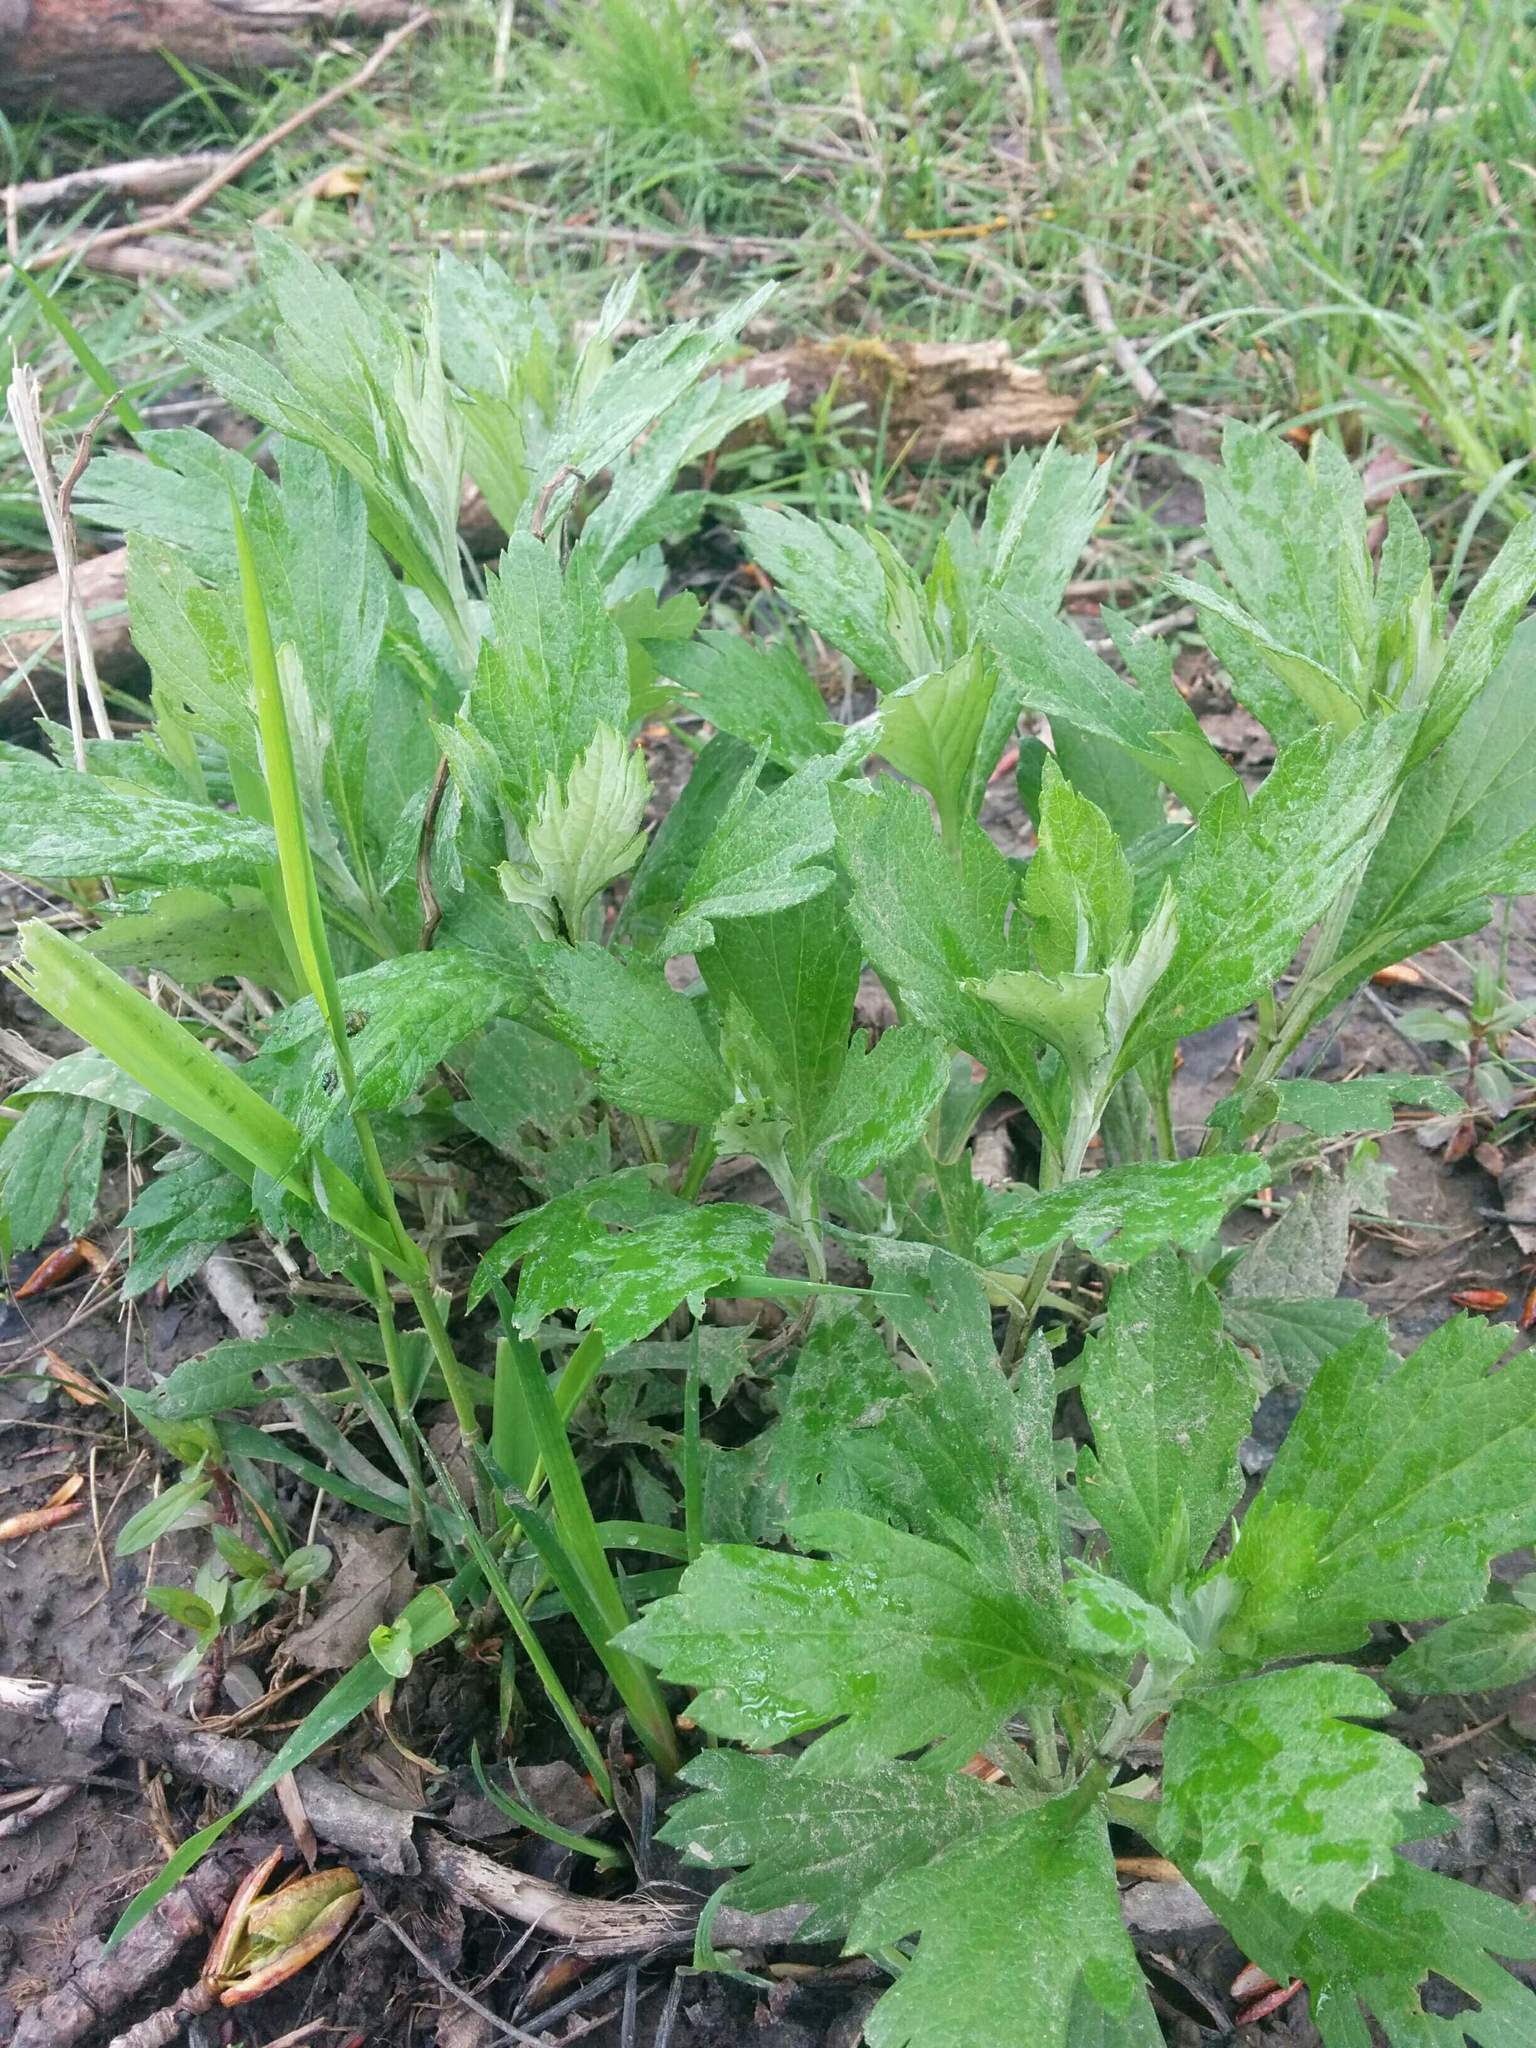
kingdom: Plantae
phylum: Tracheophyta
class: Magnoliopsida
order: Asterales
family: Asteraceae
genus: Artemisia
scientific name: Artemisia suksdorfii
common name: Suksdorf sagewort
